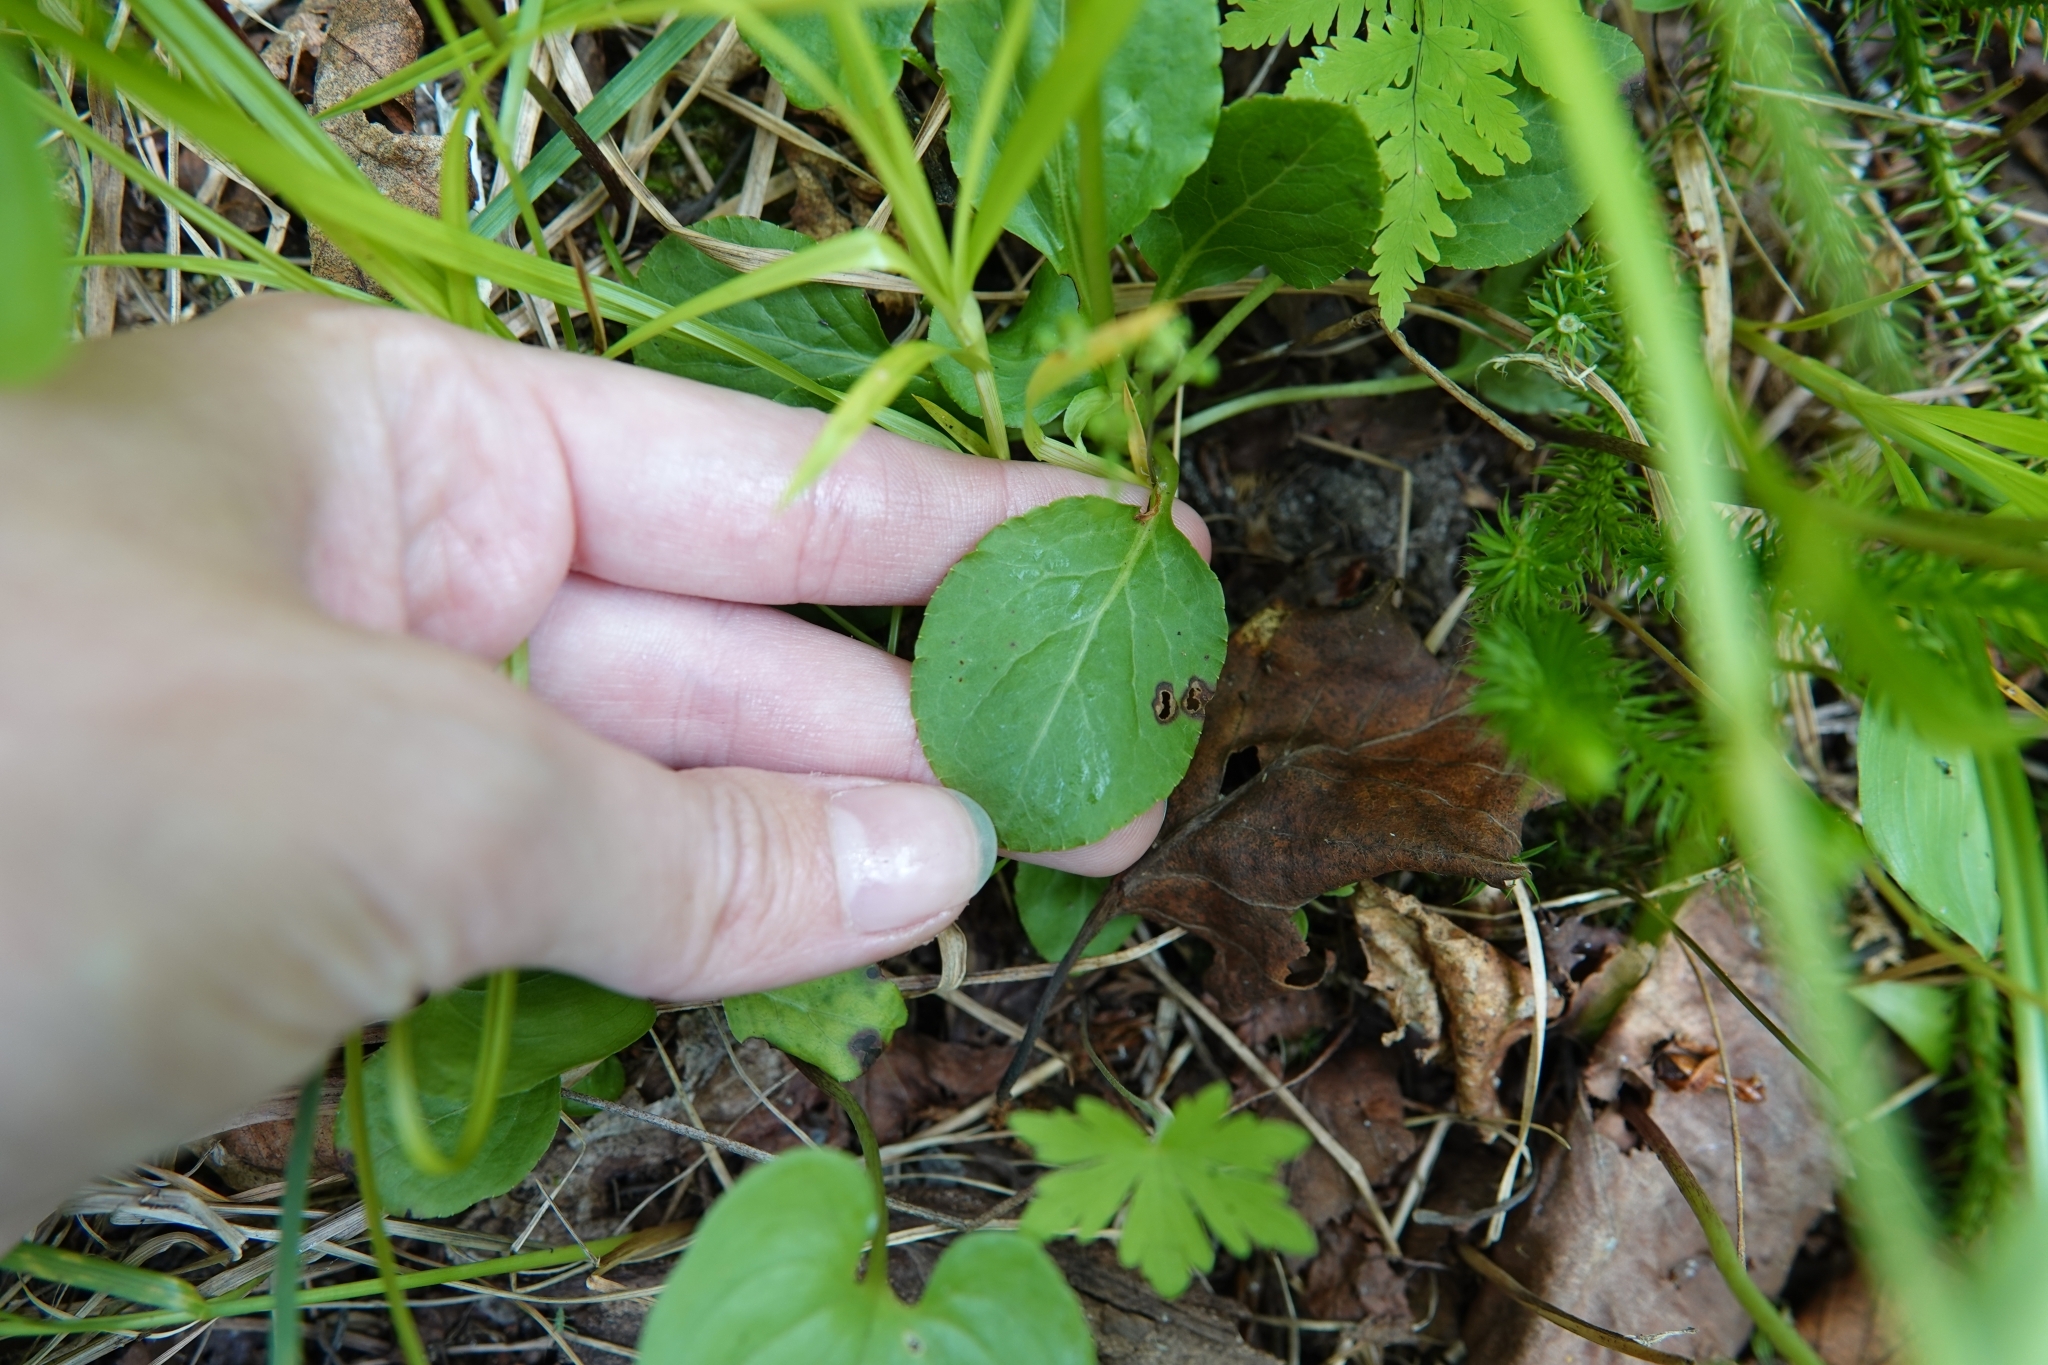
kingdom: Plantae
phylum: Tracheophyta
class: Magnoliopsida
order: Ericales
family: Ericaceae
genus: Pyrola
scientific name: Pyrola minor
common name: Common wintergreen
